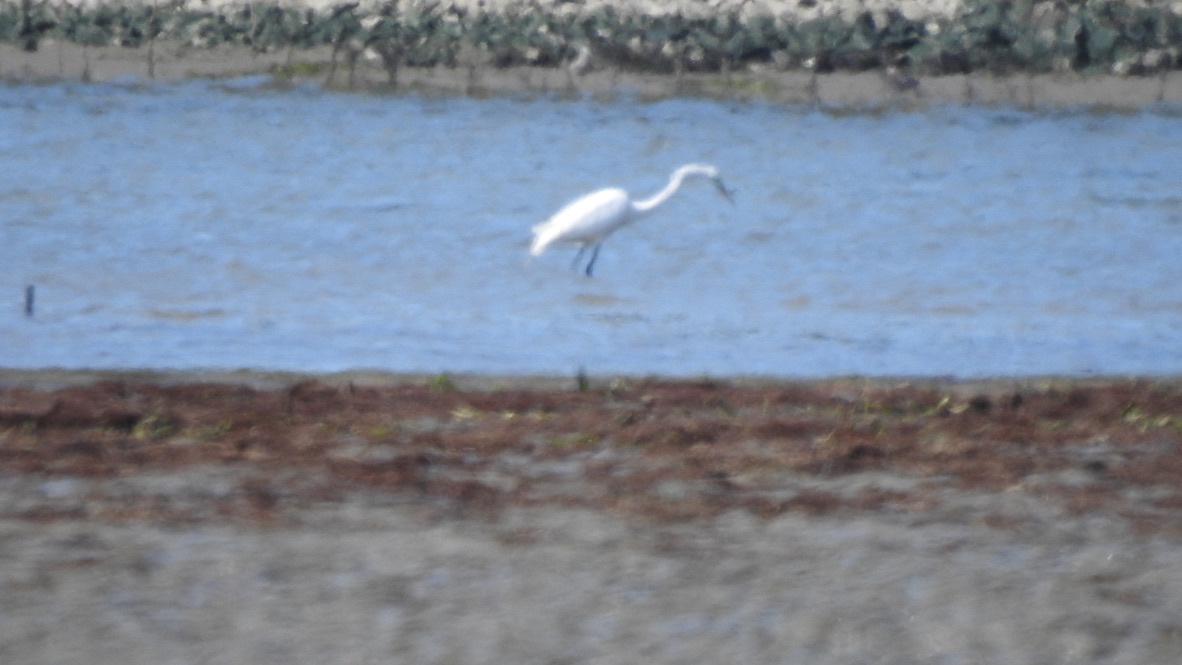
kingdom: Animalia
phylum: Chordata
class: Aves
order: Pelecaniformes
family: Ardeidae
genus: Egretta
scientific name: Egretta thula
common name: Snowy egret
